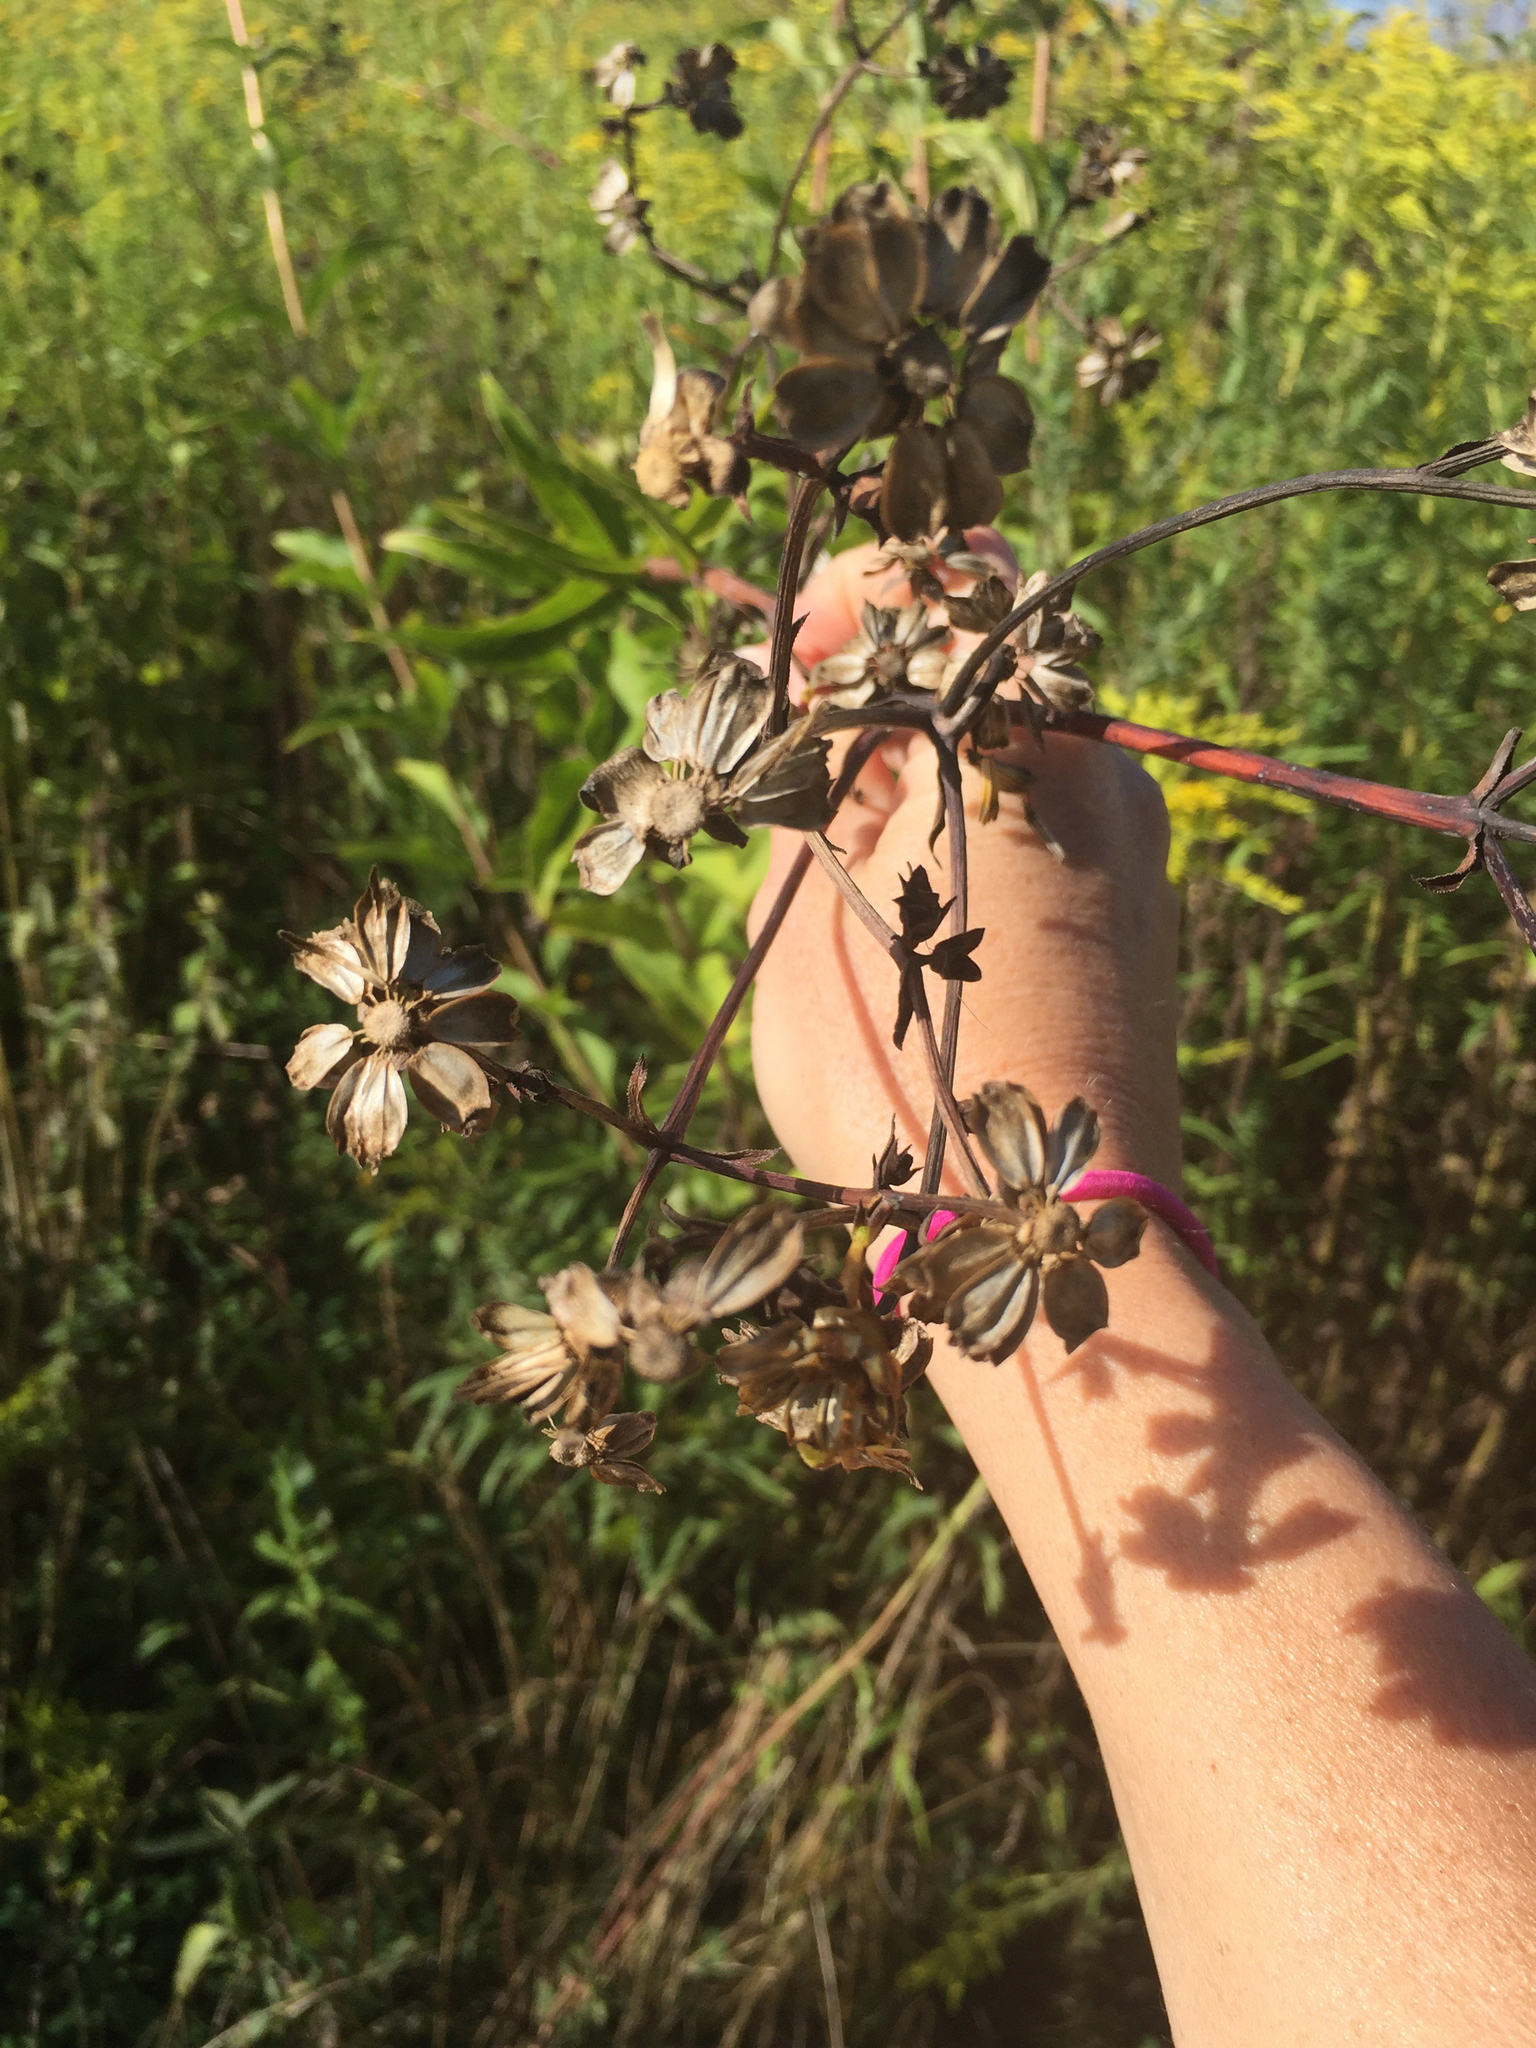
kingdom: Plantae
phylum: Tracheophyta
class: Magnoliopsida
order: Asterales
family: Asteraceae
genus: Silphium
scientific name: Silphium asteriscus
